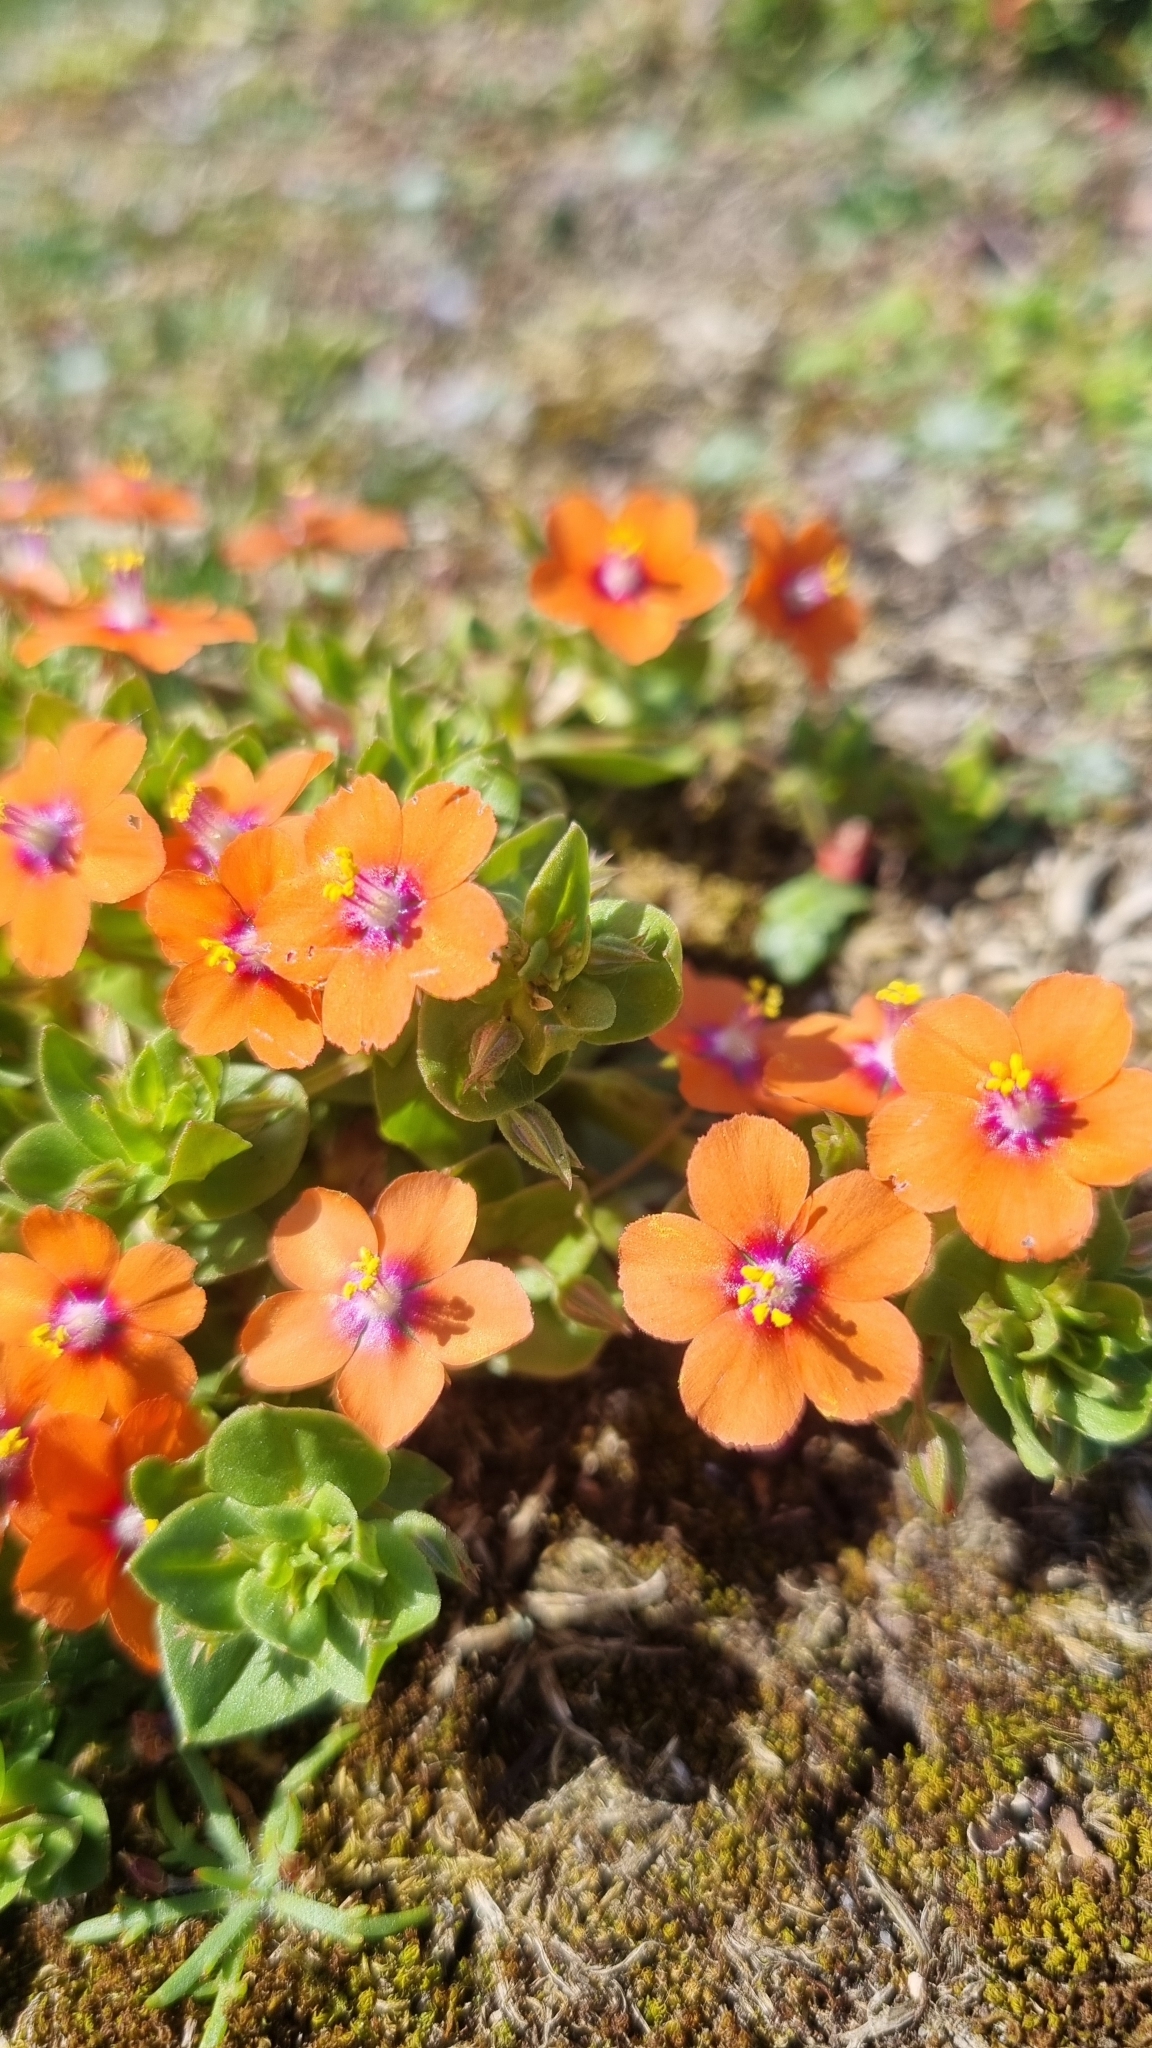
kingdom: Plantae
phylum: Tracheophyta
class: Magnoliopsida
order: Ericales
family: Primulaceae
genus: Lysimachia
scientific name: Lysimachia arvensis
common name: Scarlet pimpernel
